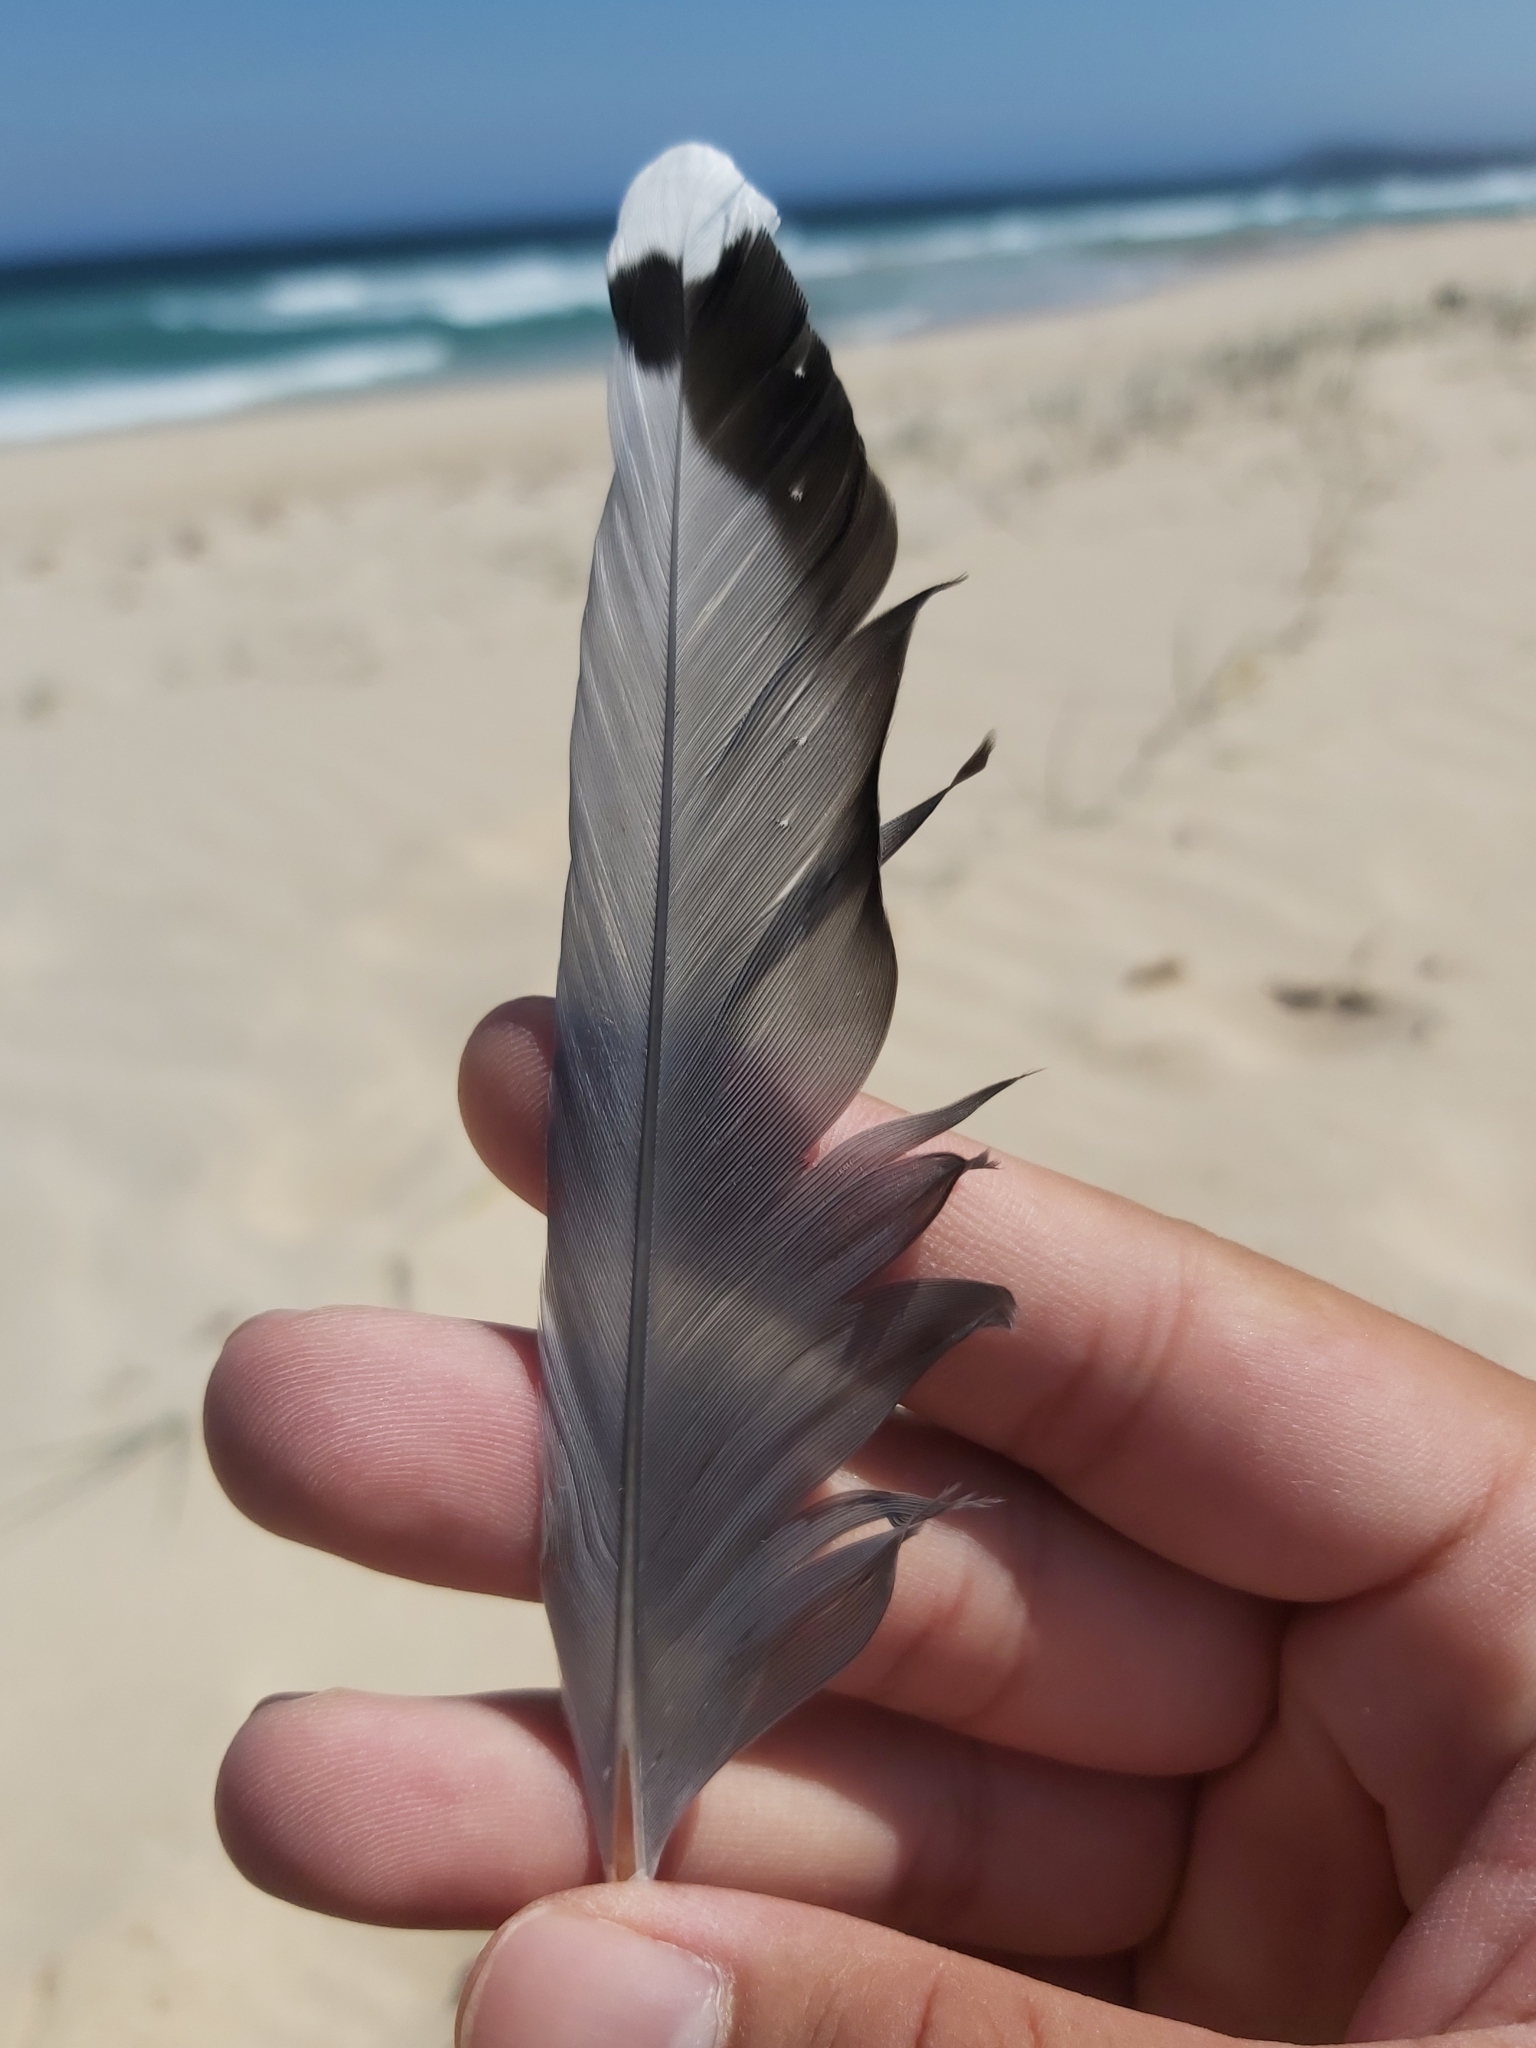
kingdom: Animalia
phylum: Chordata
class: Aves
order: Charadriiformes
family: Laridae
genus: Chroicocephalus
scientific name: Chroicocephalus novaehollandiae
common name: Silver gull
